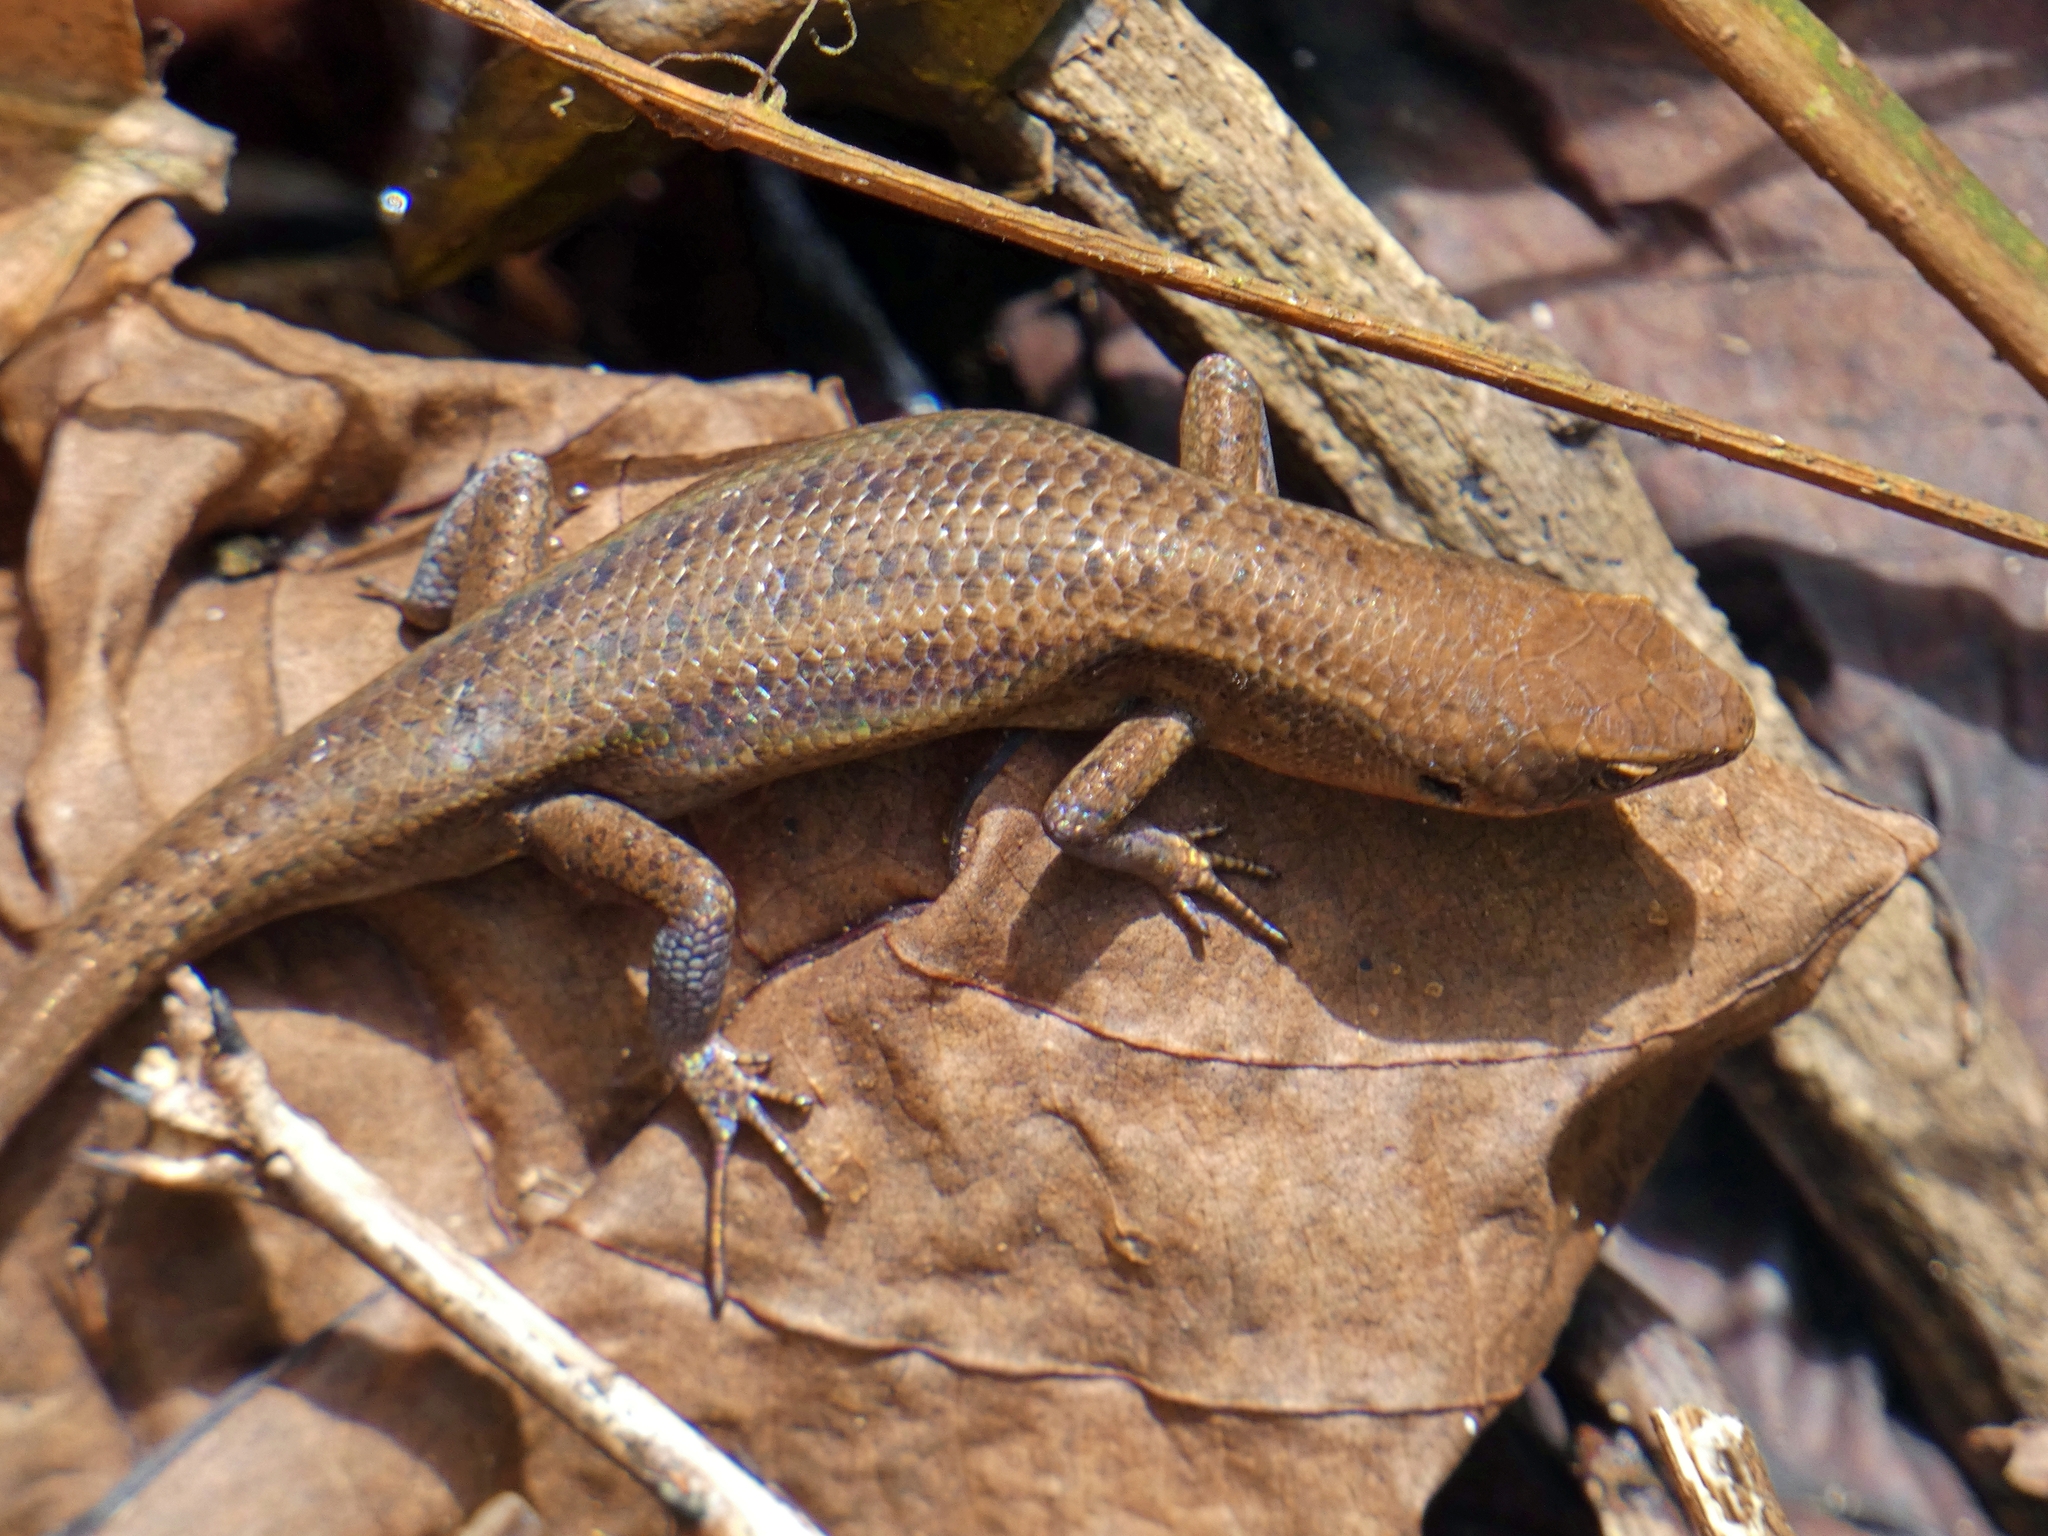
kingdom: Animalia
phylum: Chordata
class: Squamata
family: Scincidae
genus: Carlia
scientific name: Carlia crypta
